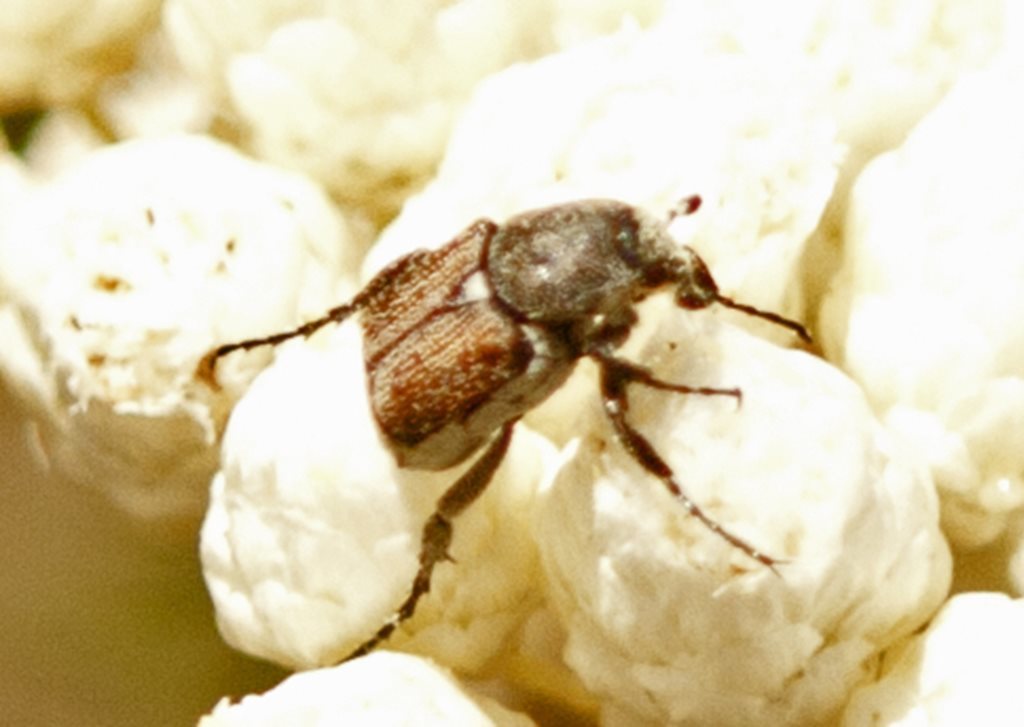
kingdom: Animalia
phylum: Arthropoda
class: Insecta
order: Coleoptera
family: Scarabaeidae
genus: Microvalgus
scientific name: Microvalgus
